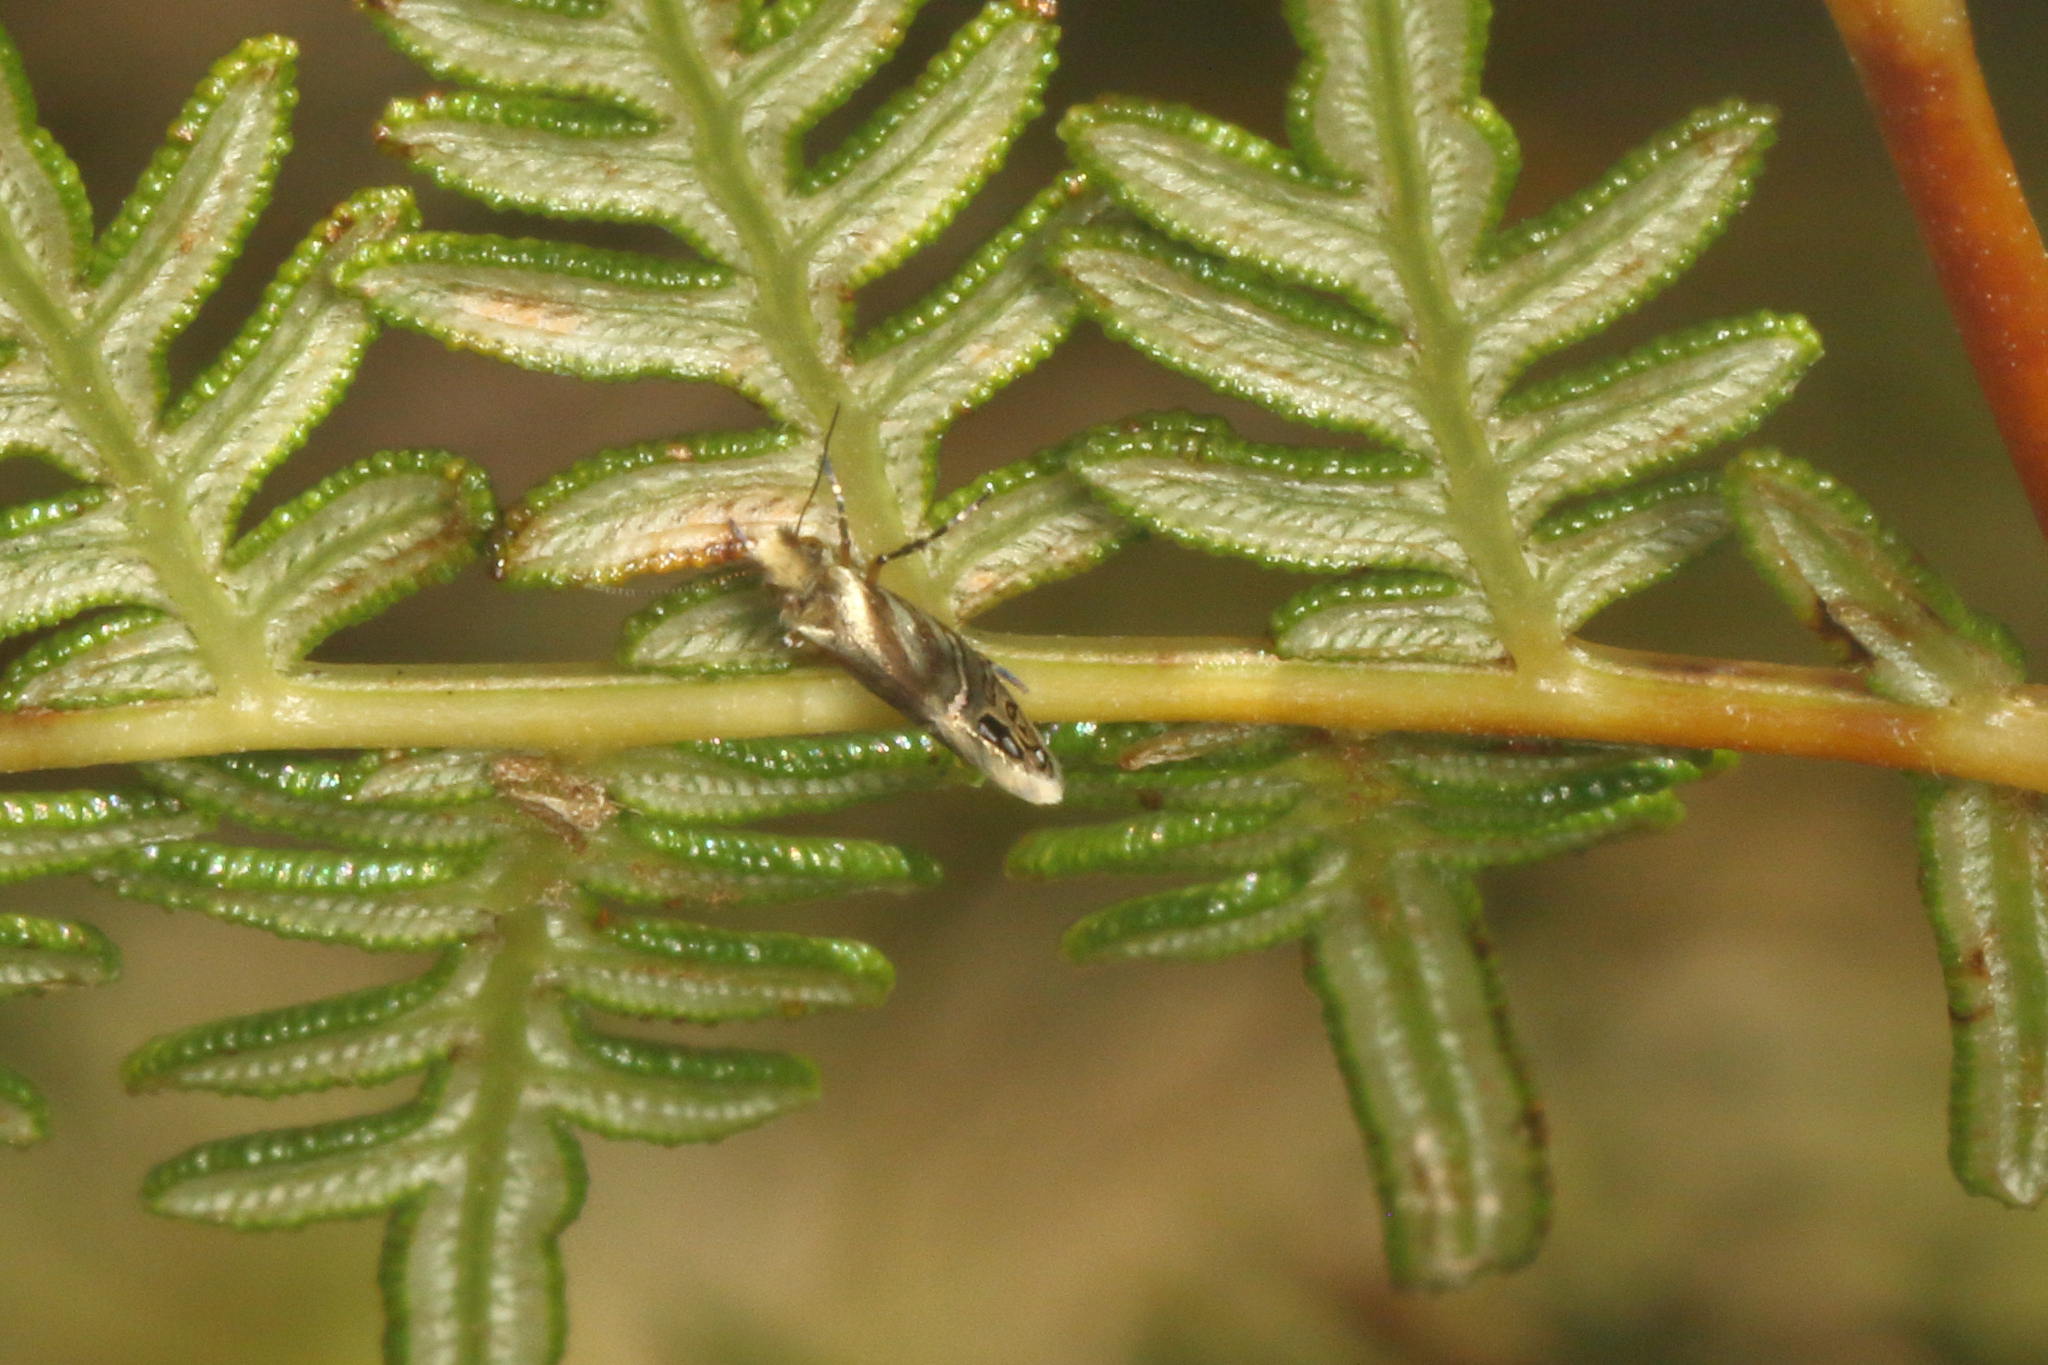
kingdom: Animalia
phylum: Arthropoda
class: Insecta
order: Lepidoptera
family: Micropterigidae
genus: Sabatinca
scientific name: Sabatinca doroxena
